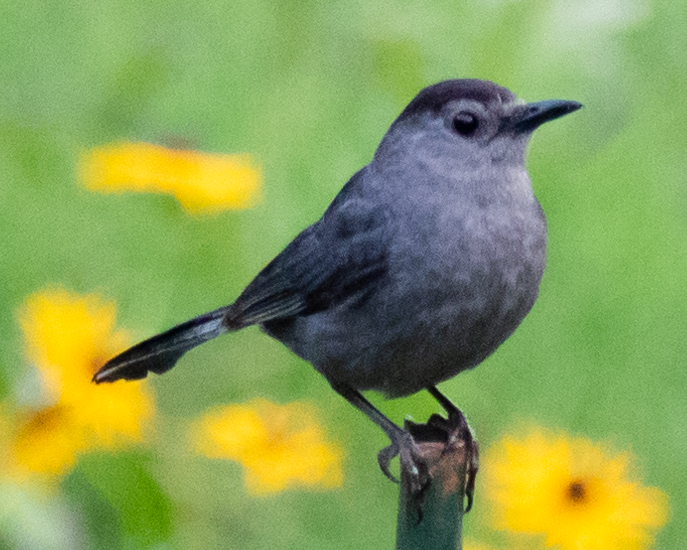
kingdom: Animalia
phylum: Chordata
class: Aves
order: Passeriformes
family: Mimidae
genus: Dumetella
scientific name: Dumetella carolinensis
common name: Gray catbird
